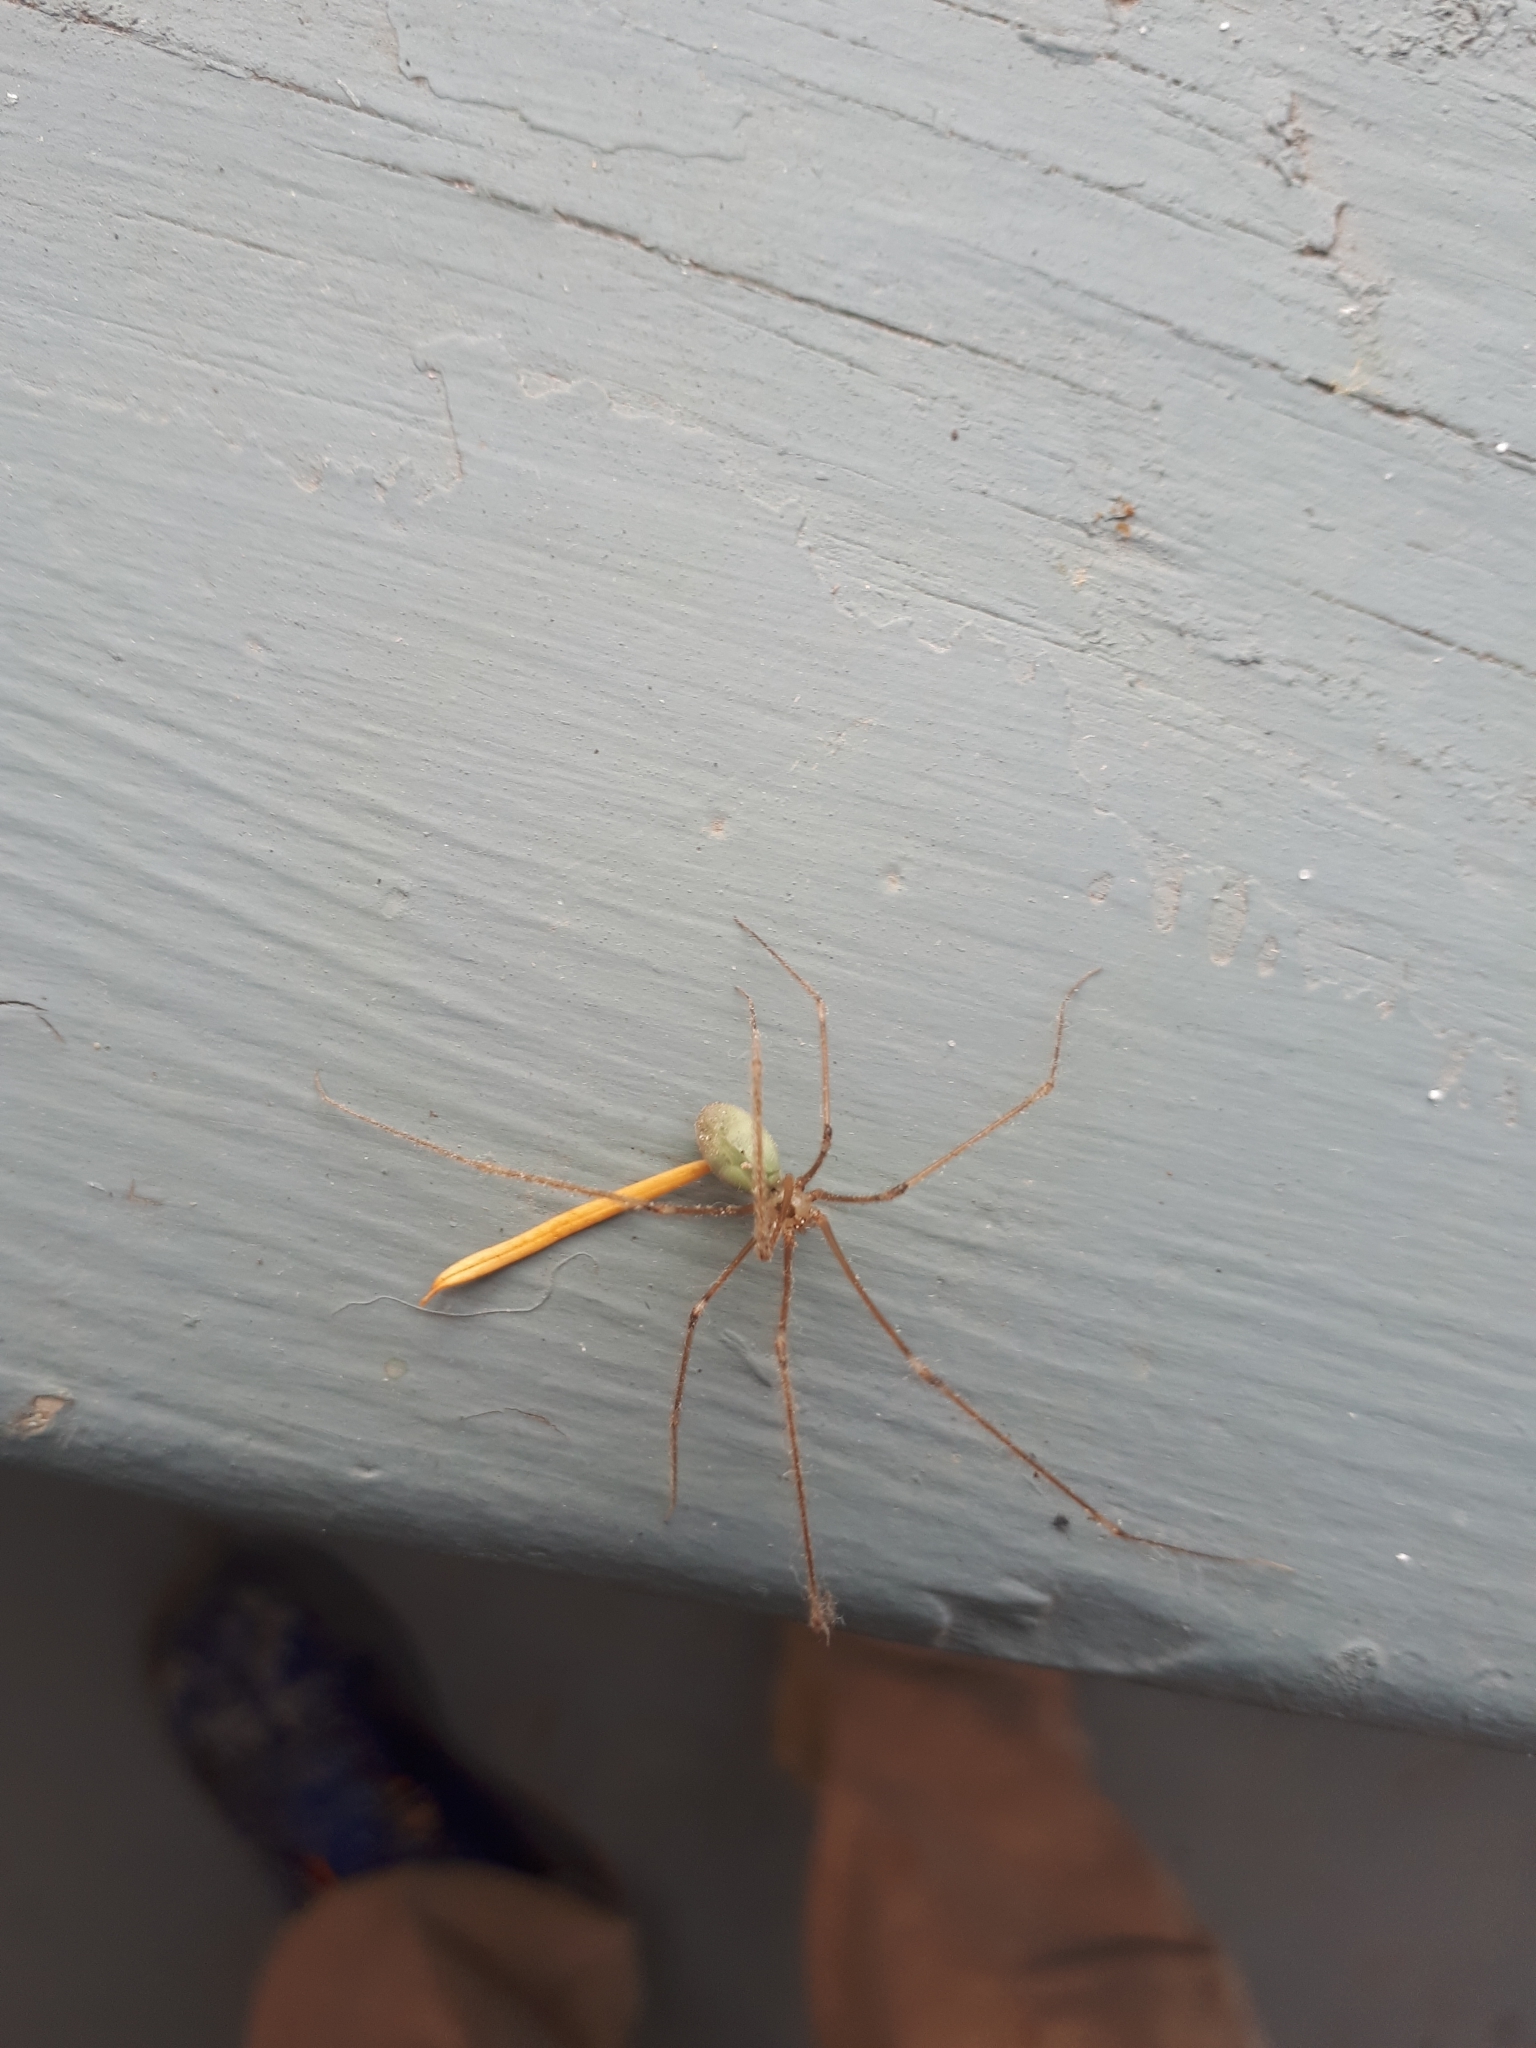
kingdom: Animalia
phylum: Arthropoda
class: Arachnida
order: Araneae
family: Pholcidae
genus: Pholcus
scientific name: Pholcus phalangioides
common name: Longbodied cellar spider
